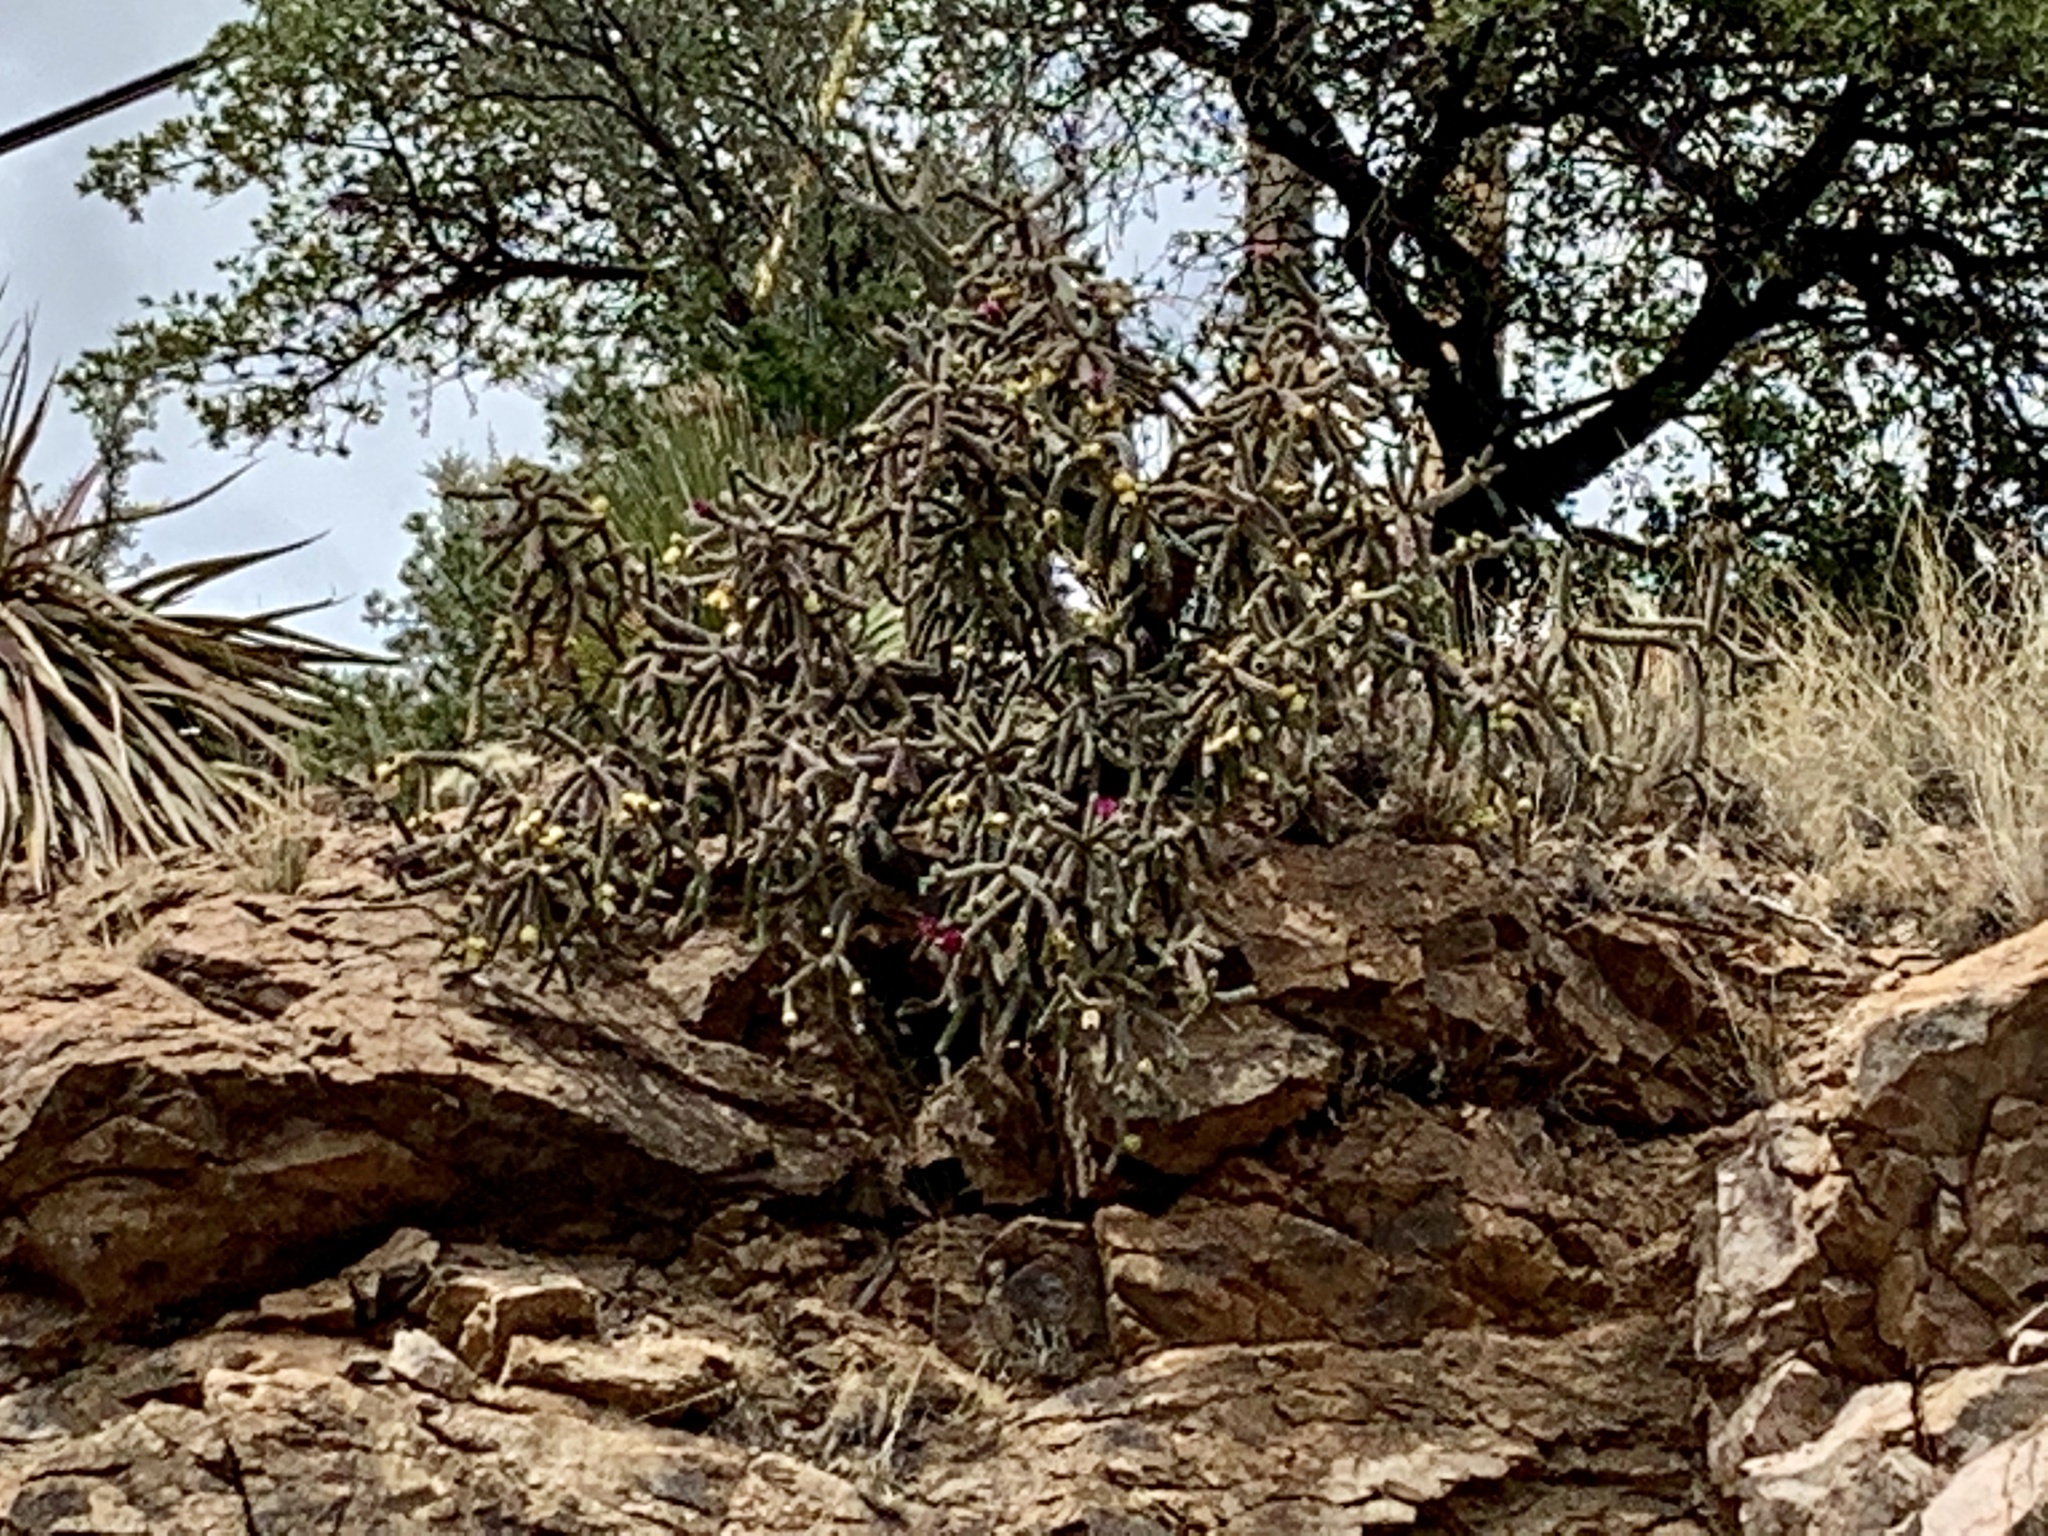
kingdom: Plantae
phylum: Tracheophyta
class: Magnoliopsida
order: Caryophyllales
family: Cactaceae
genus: Cylindropuntia
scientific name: Cylindropuntia imbricata
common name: Candelabrum cactus
